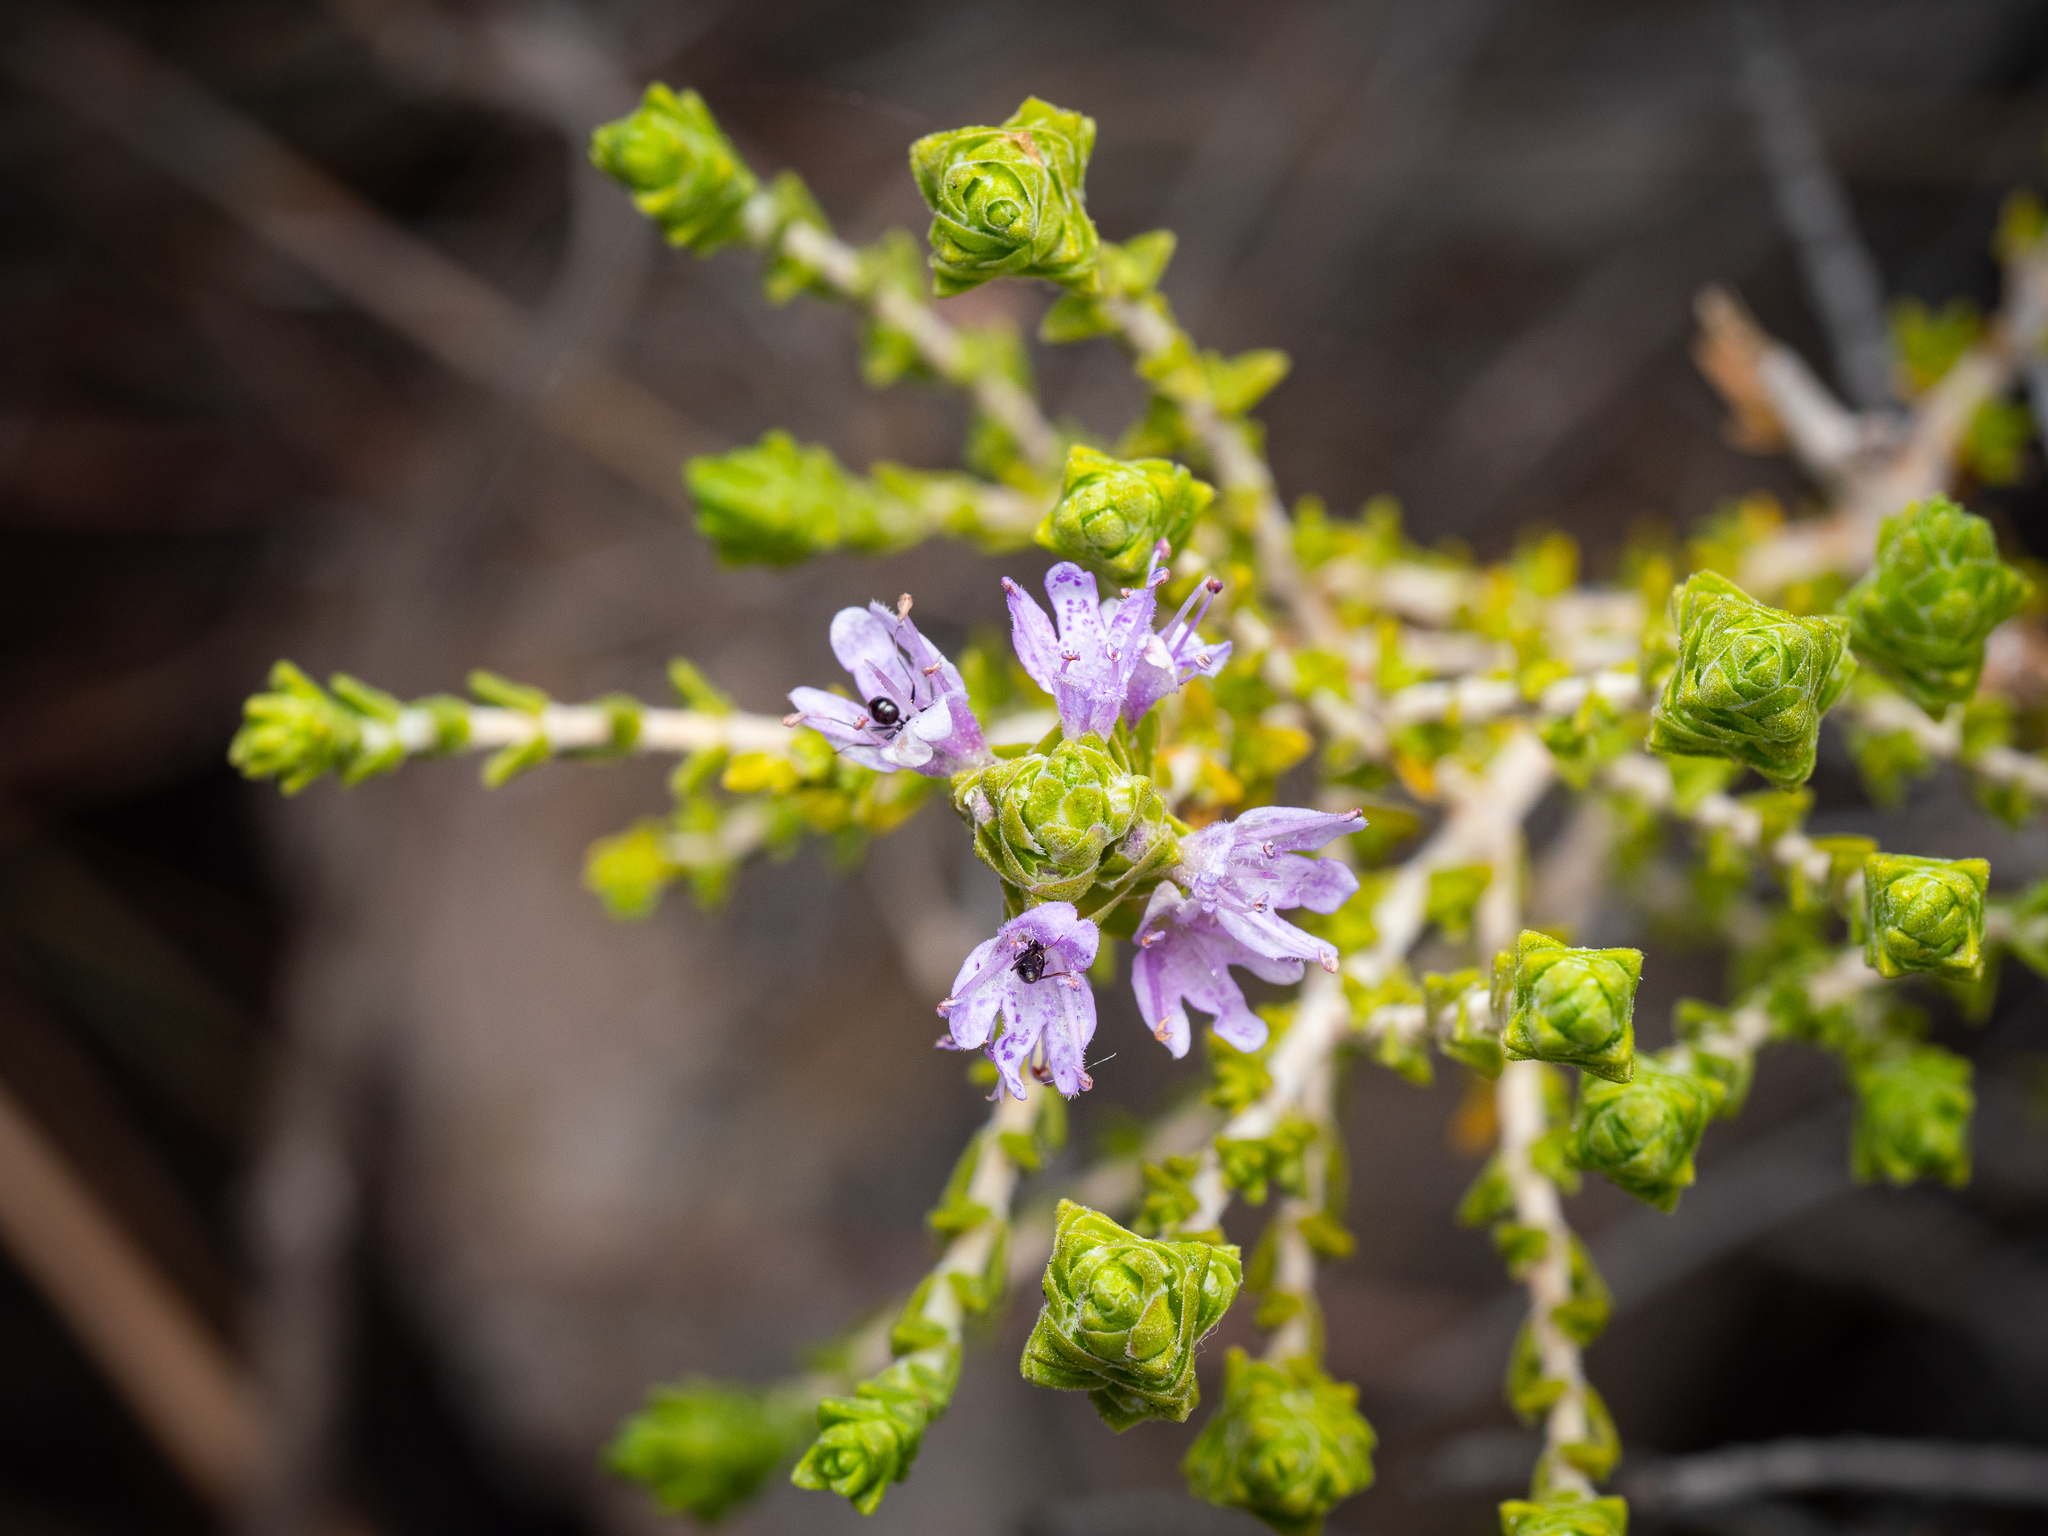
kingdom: Plantae
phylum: Tracheophyta
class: Magnoliopsida
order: Lamiales
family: Lamiaceae
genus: Thymbra
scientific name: Thymbra capitata
